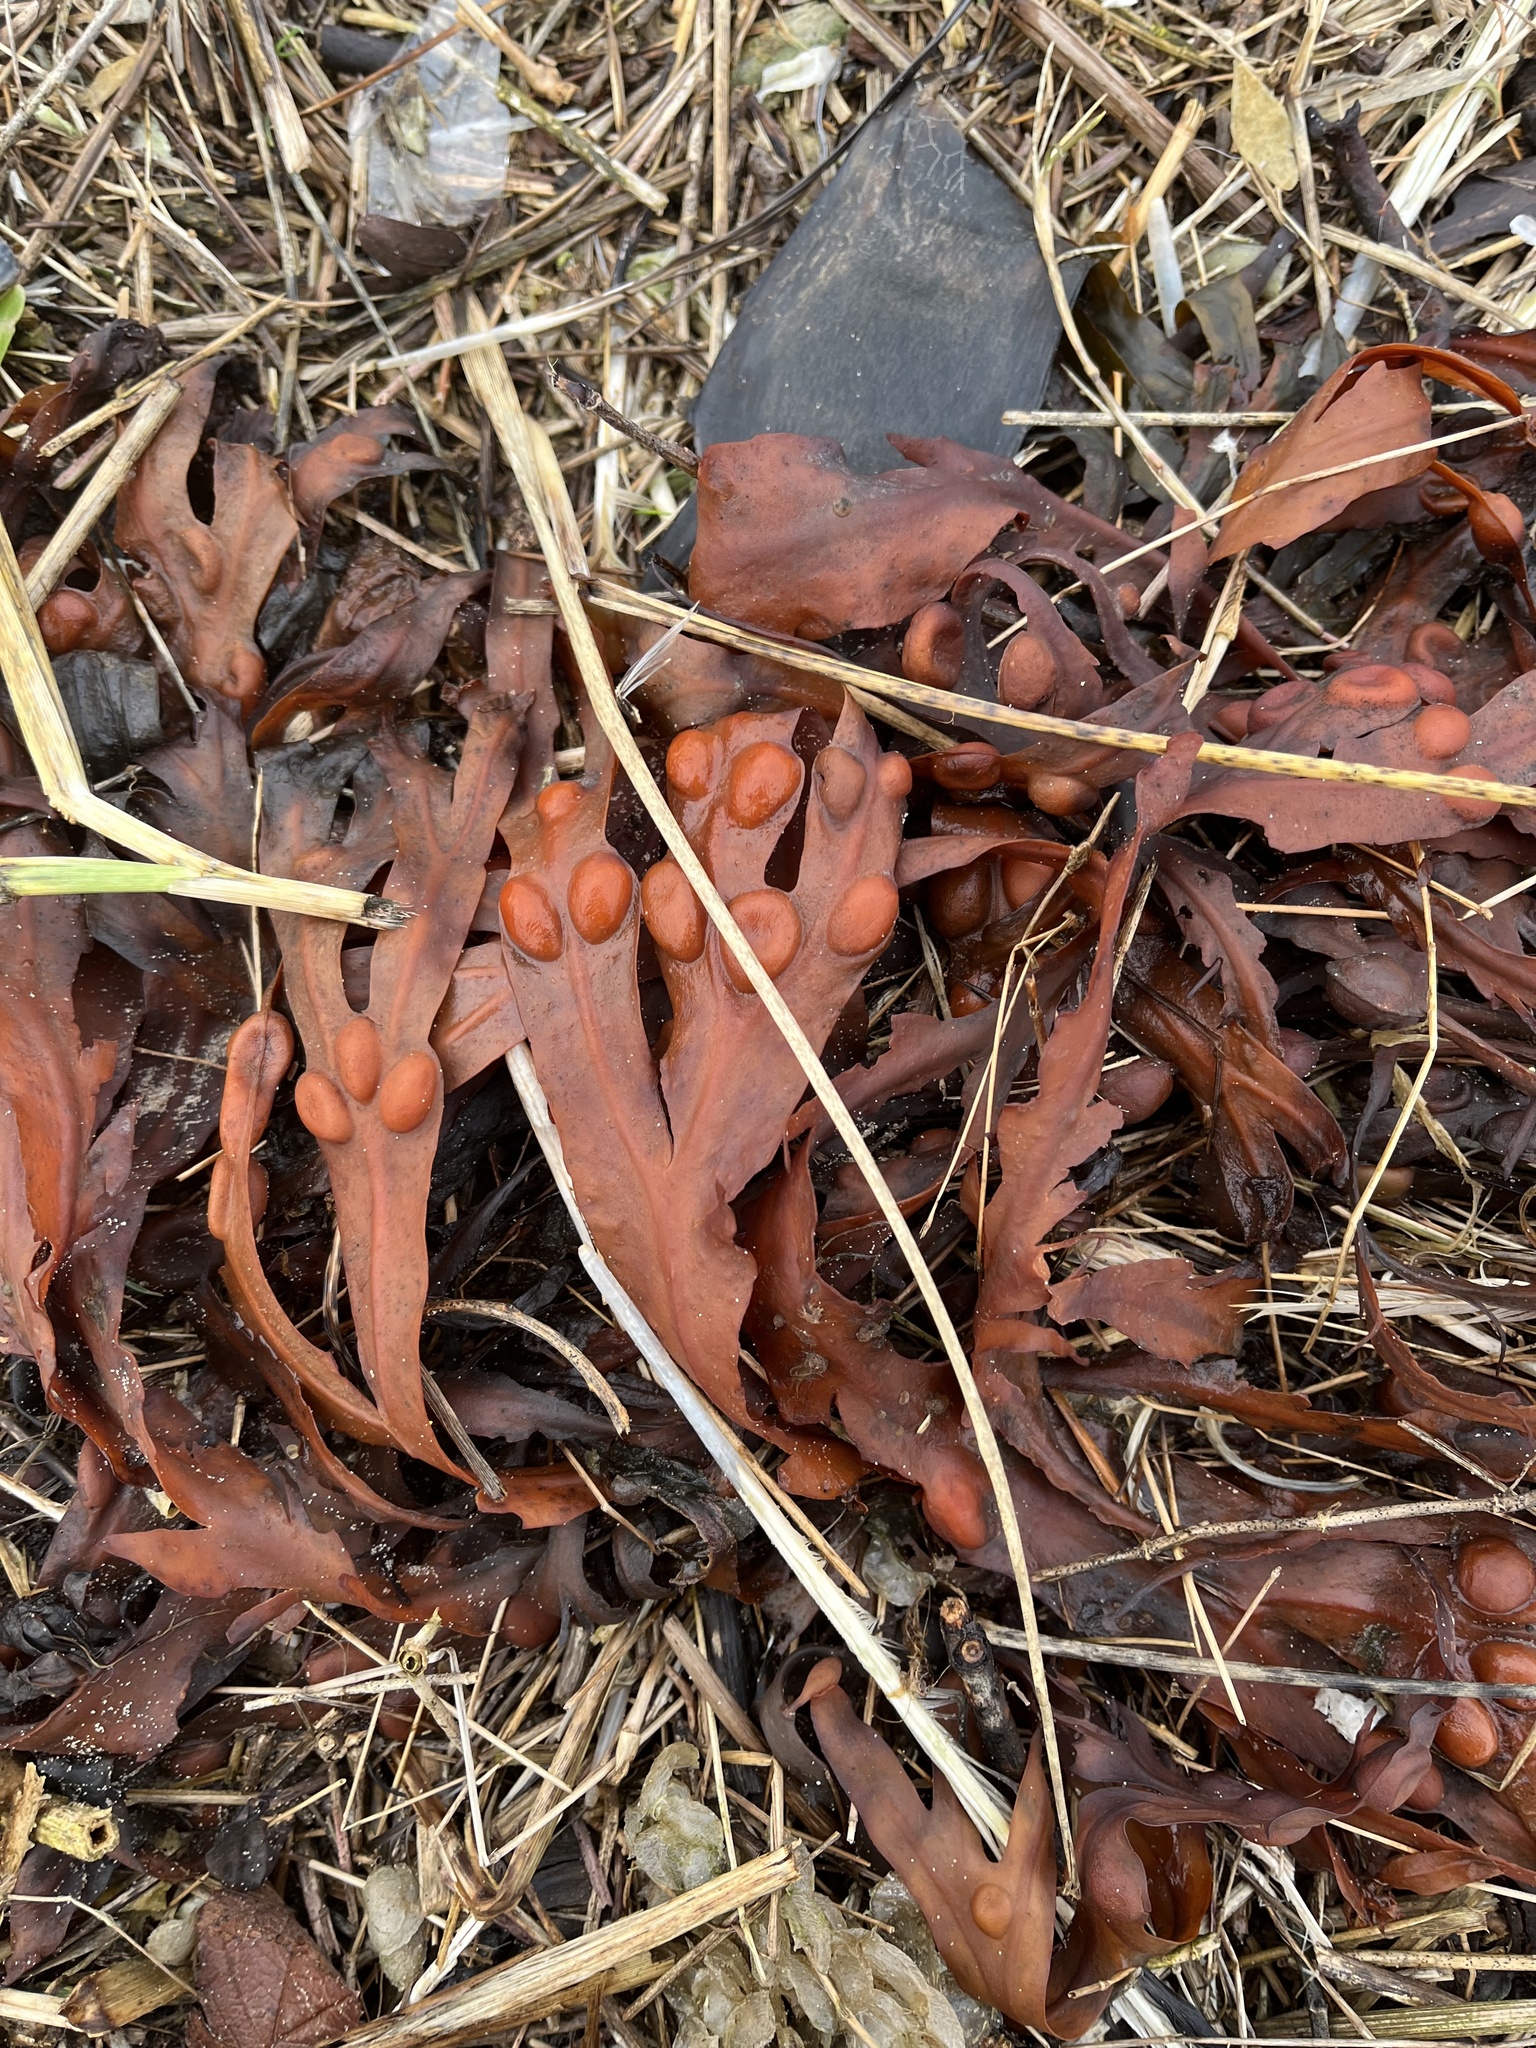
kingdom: Chromista
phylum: Ochrophyta
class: Phaeophyceae
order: Fucales
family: Fucaceae
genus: Fucus
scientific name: Fucus vesiculosus
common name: Bladder wrack
